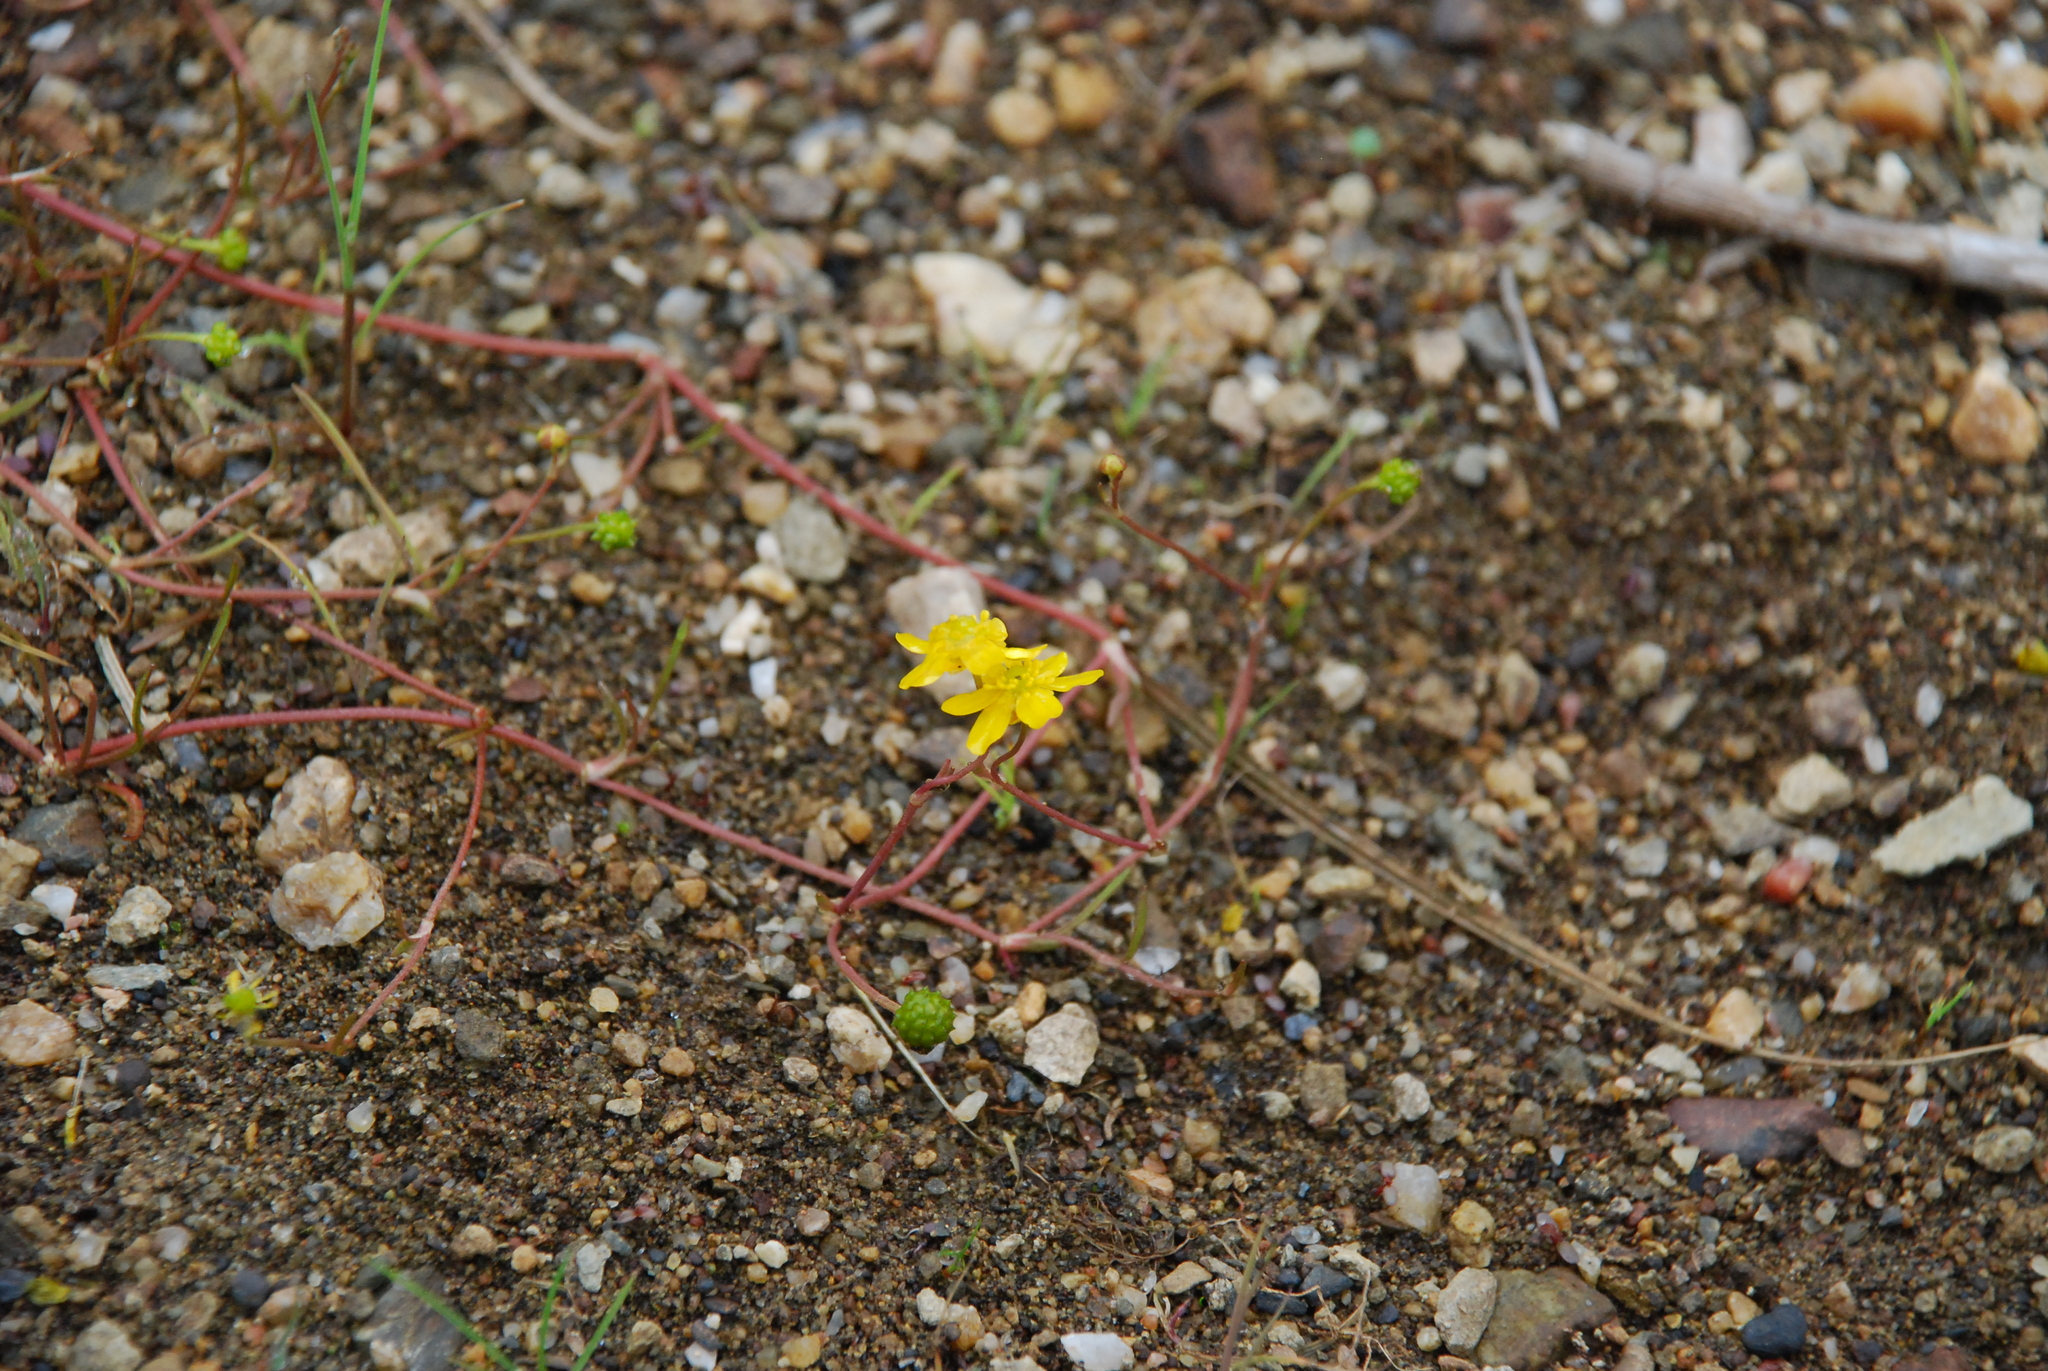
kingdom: Plantae
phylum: Tracheophyta
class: Magnoliopsida
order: Ranunculales
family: Ranunculaceae
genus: Ranunculus
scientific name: Ranunculus reptans
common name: Creeping spearwort
